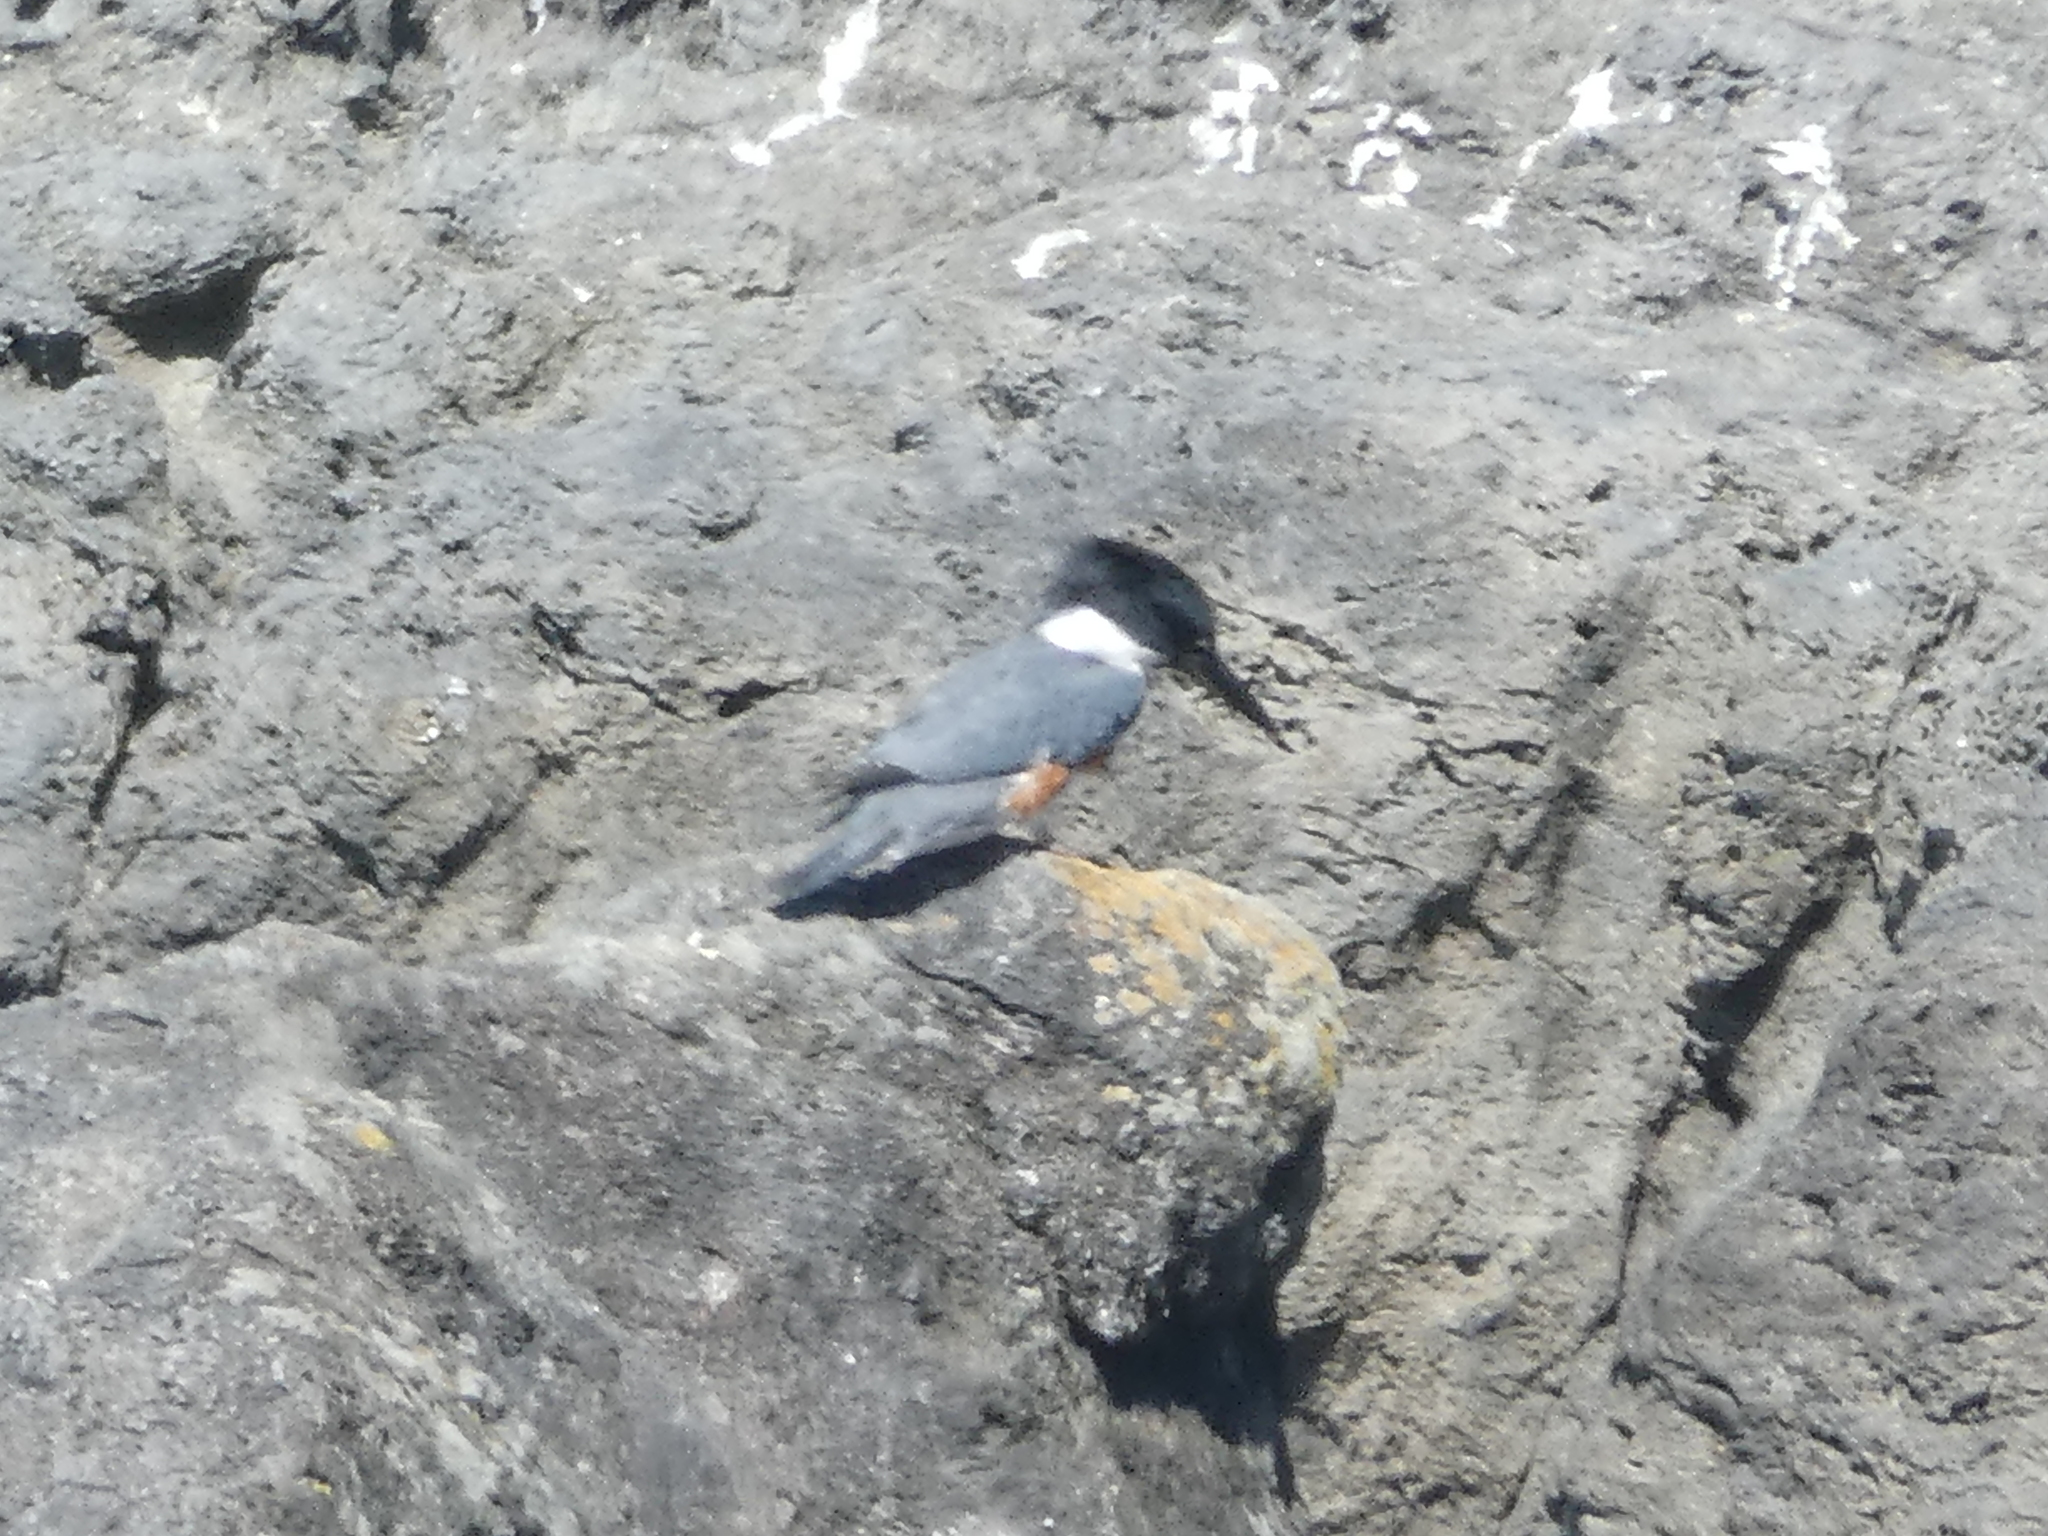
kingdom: Animalia
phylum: Chordata
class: Aves
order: Coraciiformes
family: Alcedinidae
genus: Megaceryle
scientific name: Megaceryle alcyon
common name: Belted kingfisher
